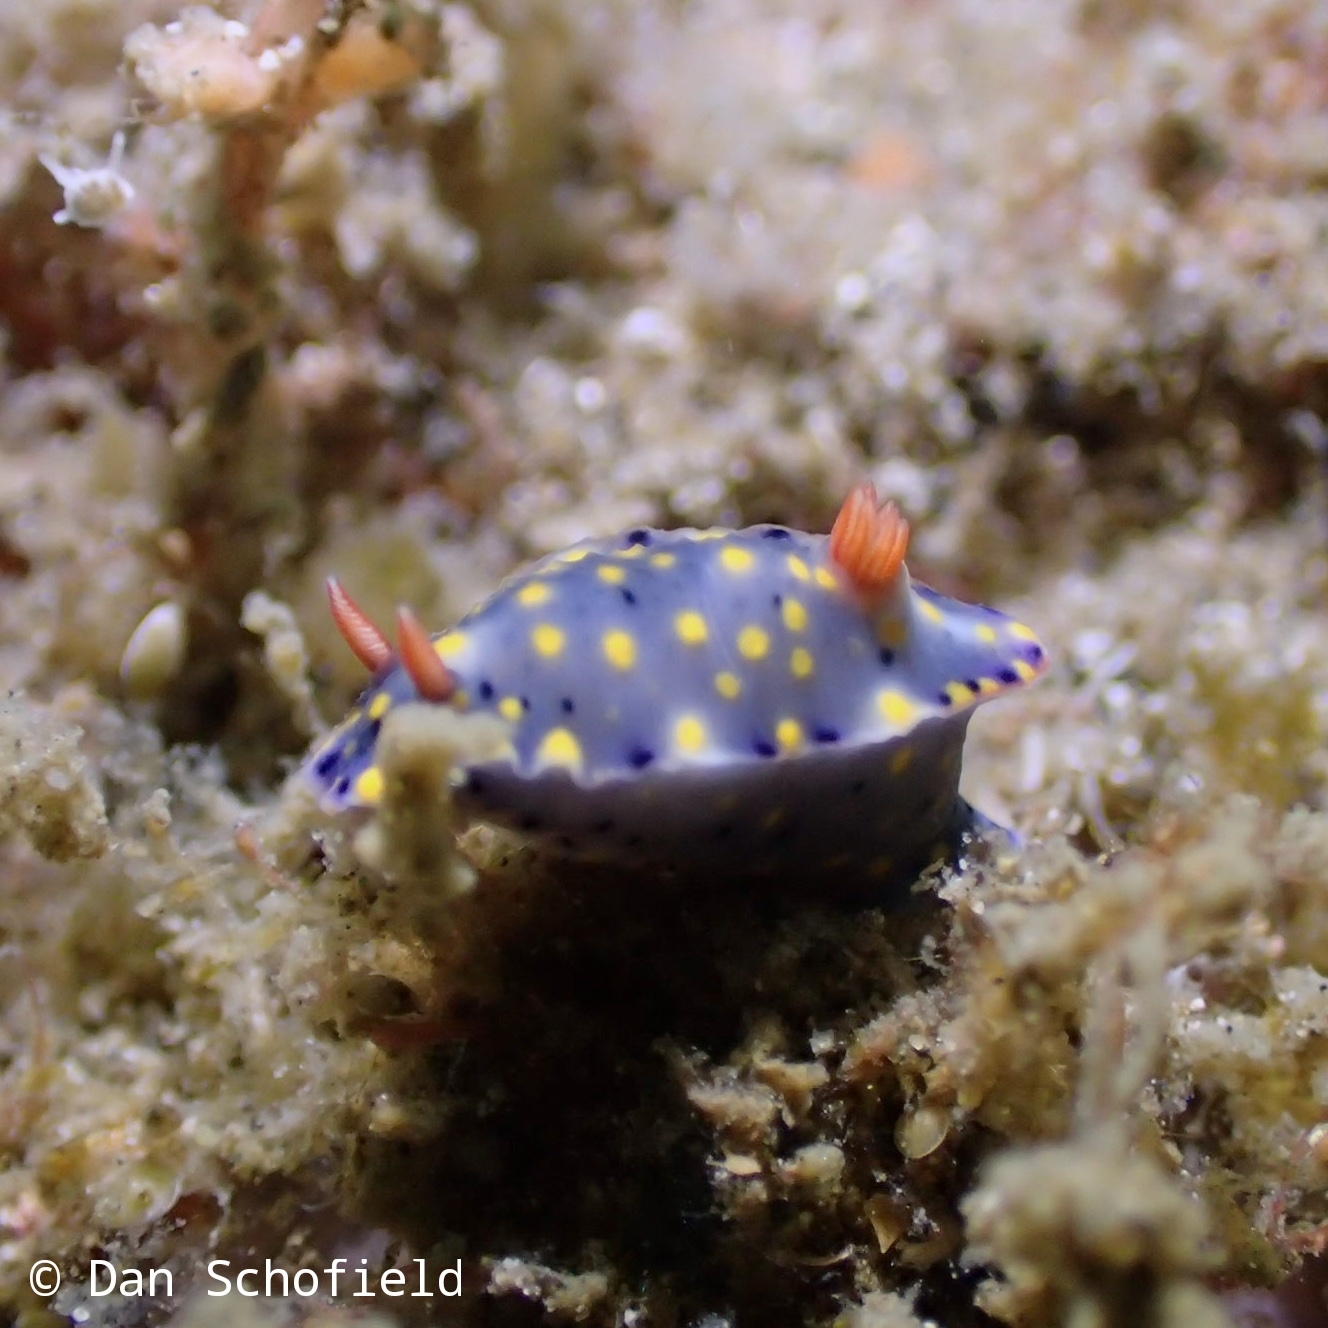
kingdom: Animalia
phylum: Mollusca
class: Gastropoda
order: Nudibranchia
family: Chromodorididae
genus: Hypselodoris
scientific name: Hypselodoris roo
